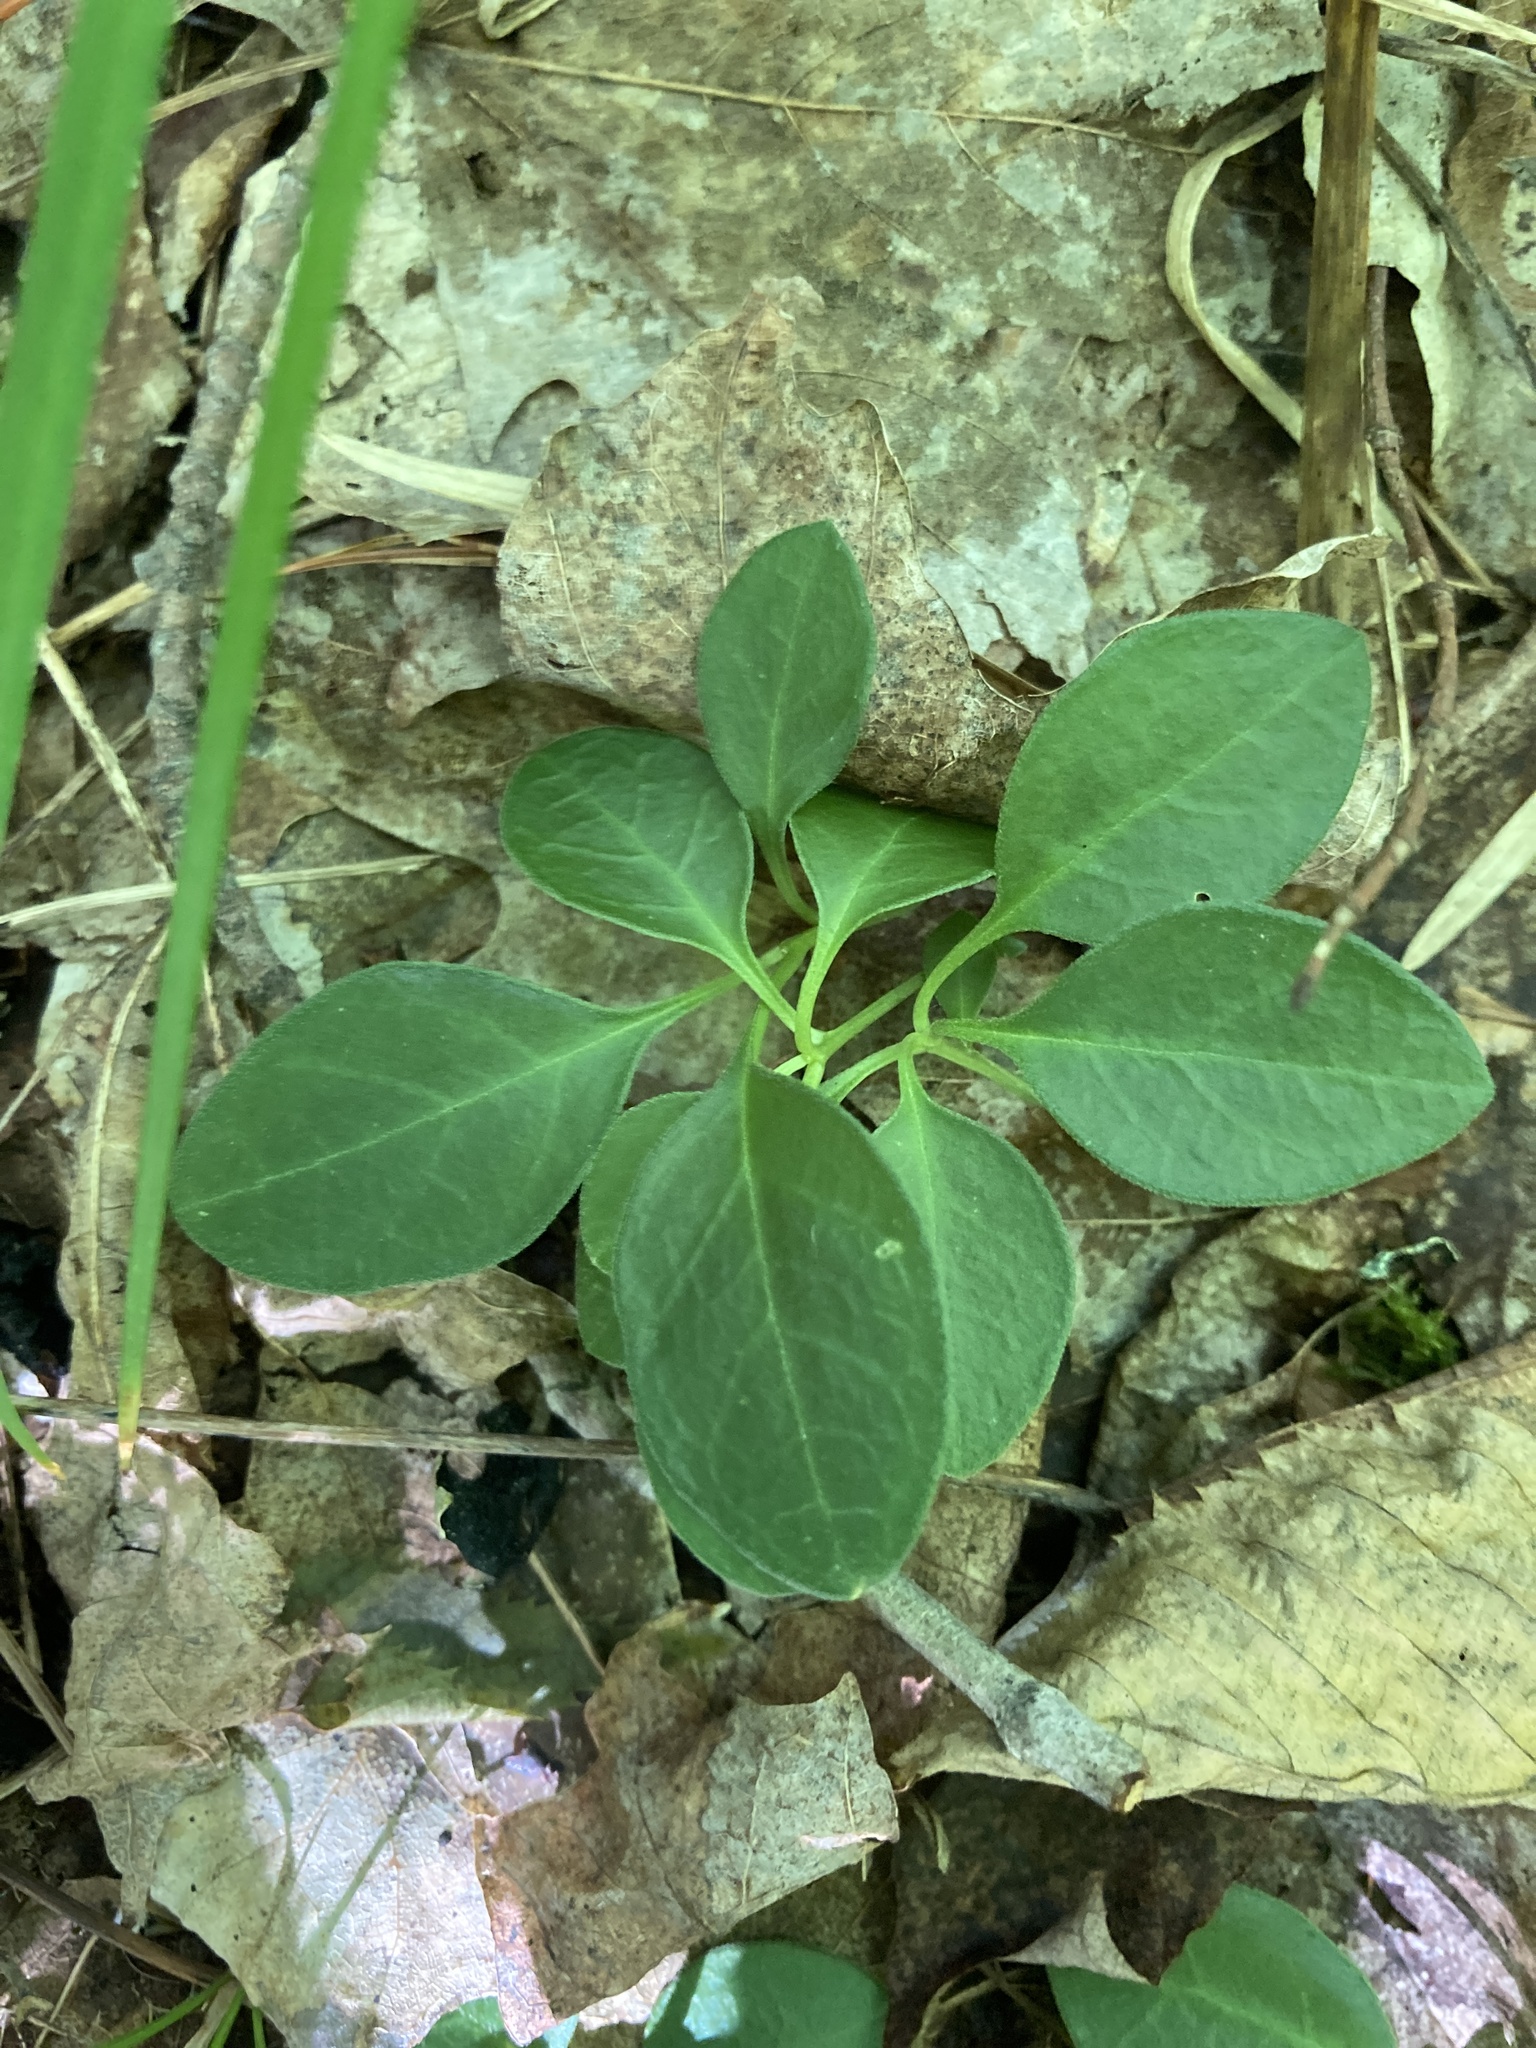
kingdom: Plantae
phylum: Tracheophyta
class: Magnoliopsida
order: Fabales
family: Polygalaceae
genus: Polygaloides
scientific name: Polygaloides paucifolia
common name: Bird-on-the-wing
